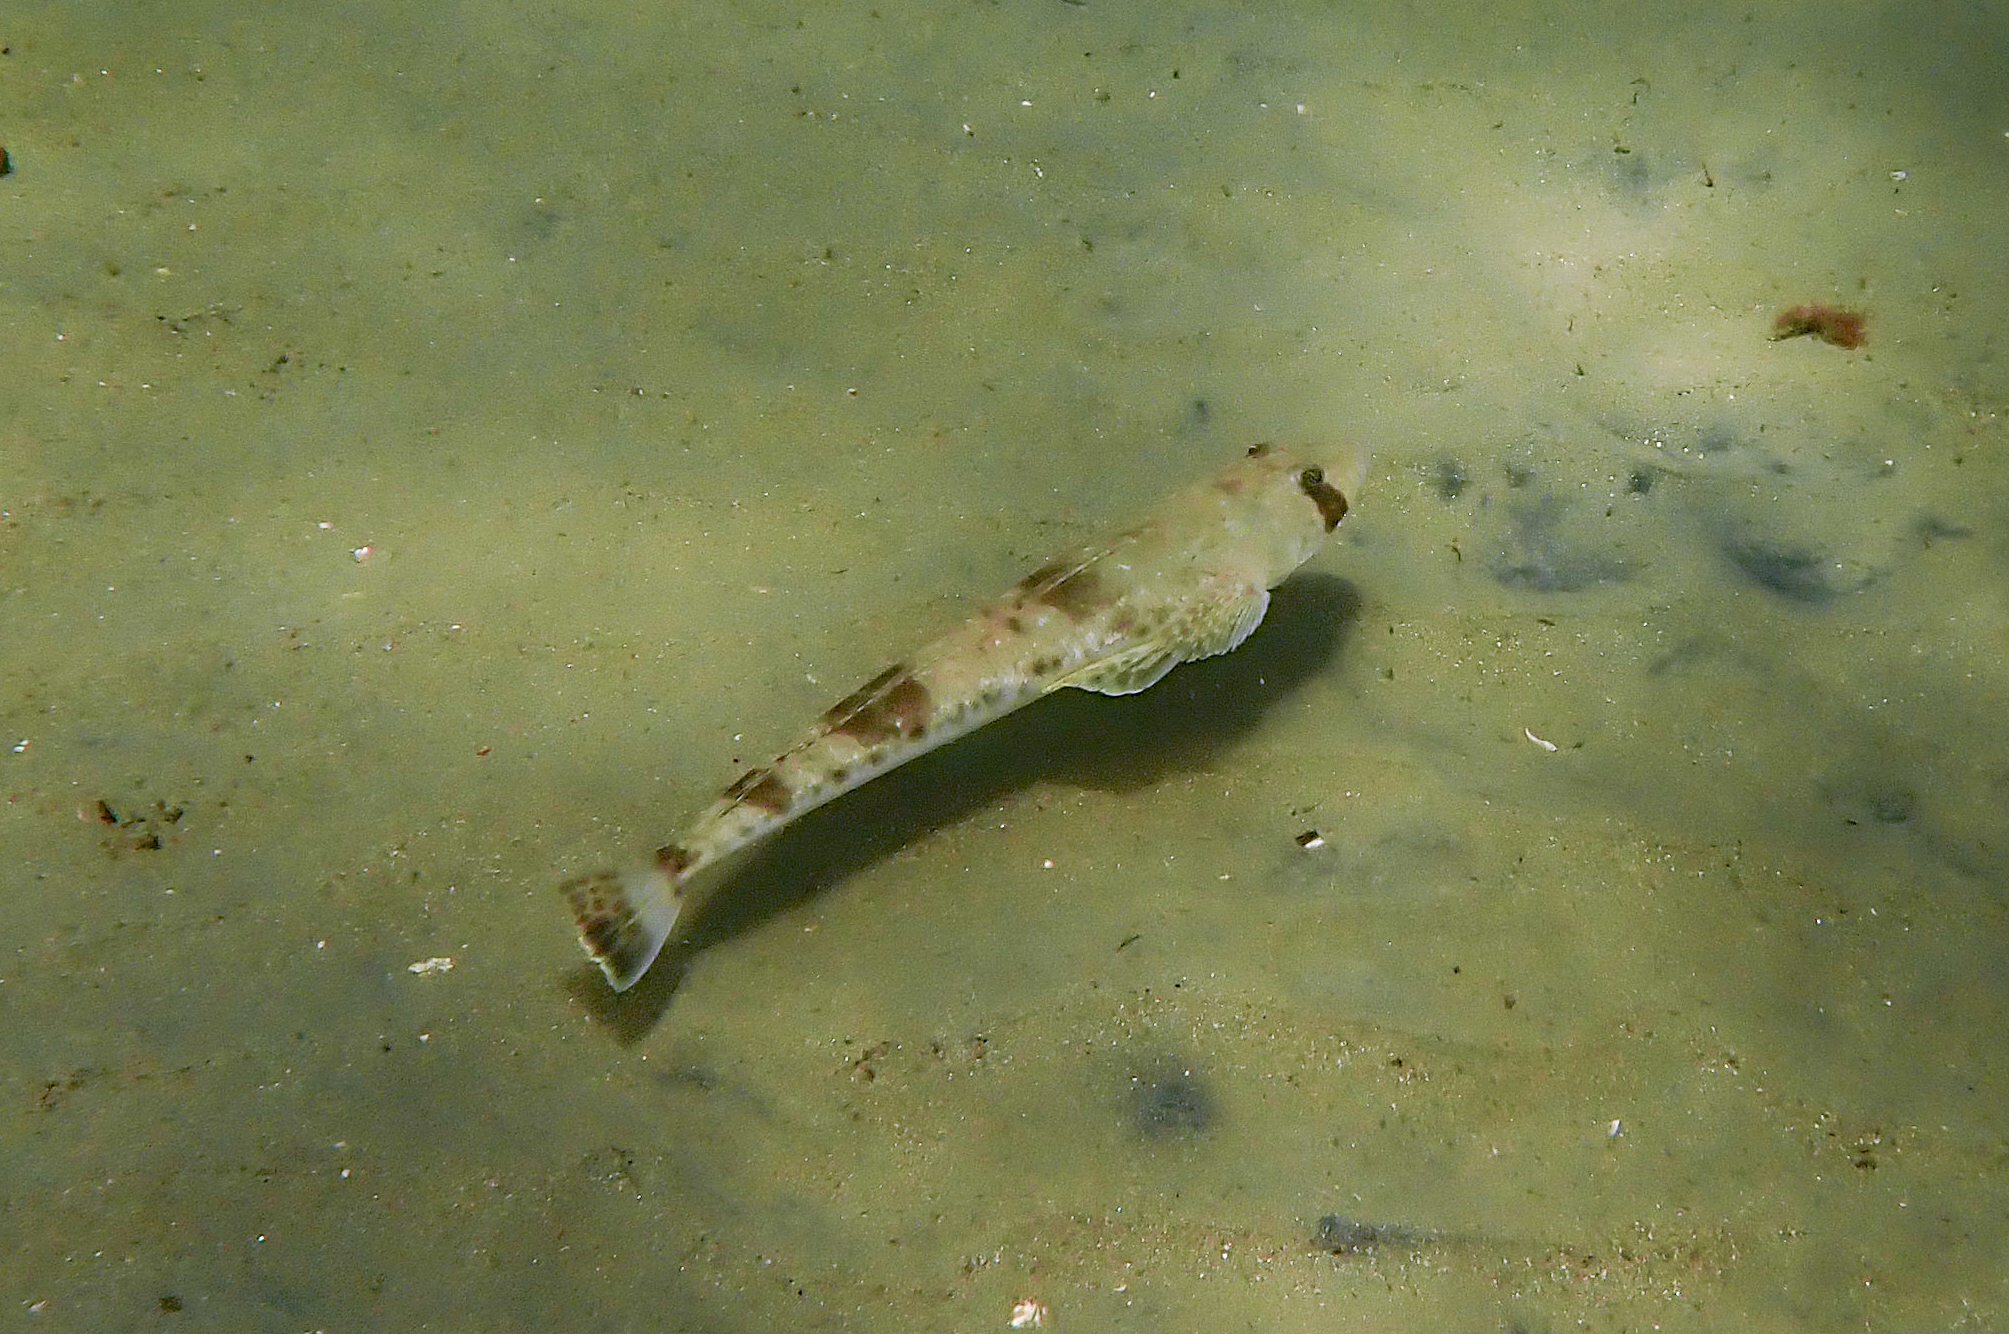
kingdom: Animalia
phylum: Chordata
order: Scorpaeniformes
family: Platycephalidae
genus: Platycephalus
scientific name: Platycephalus bassensis
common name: Sand flathead
